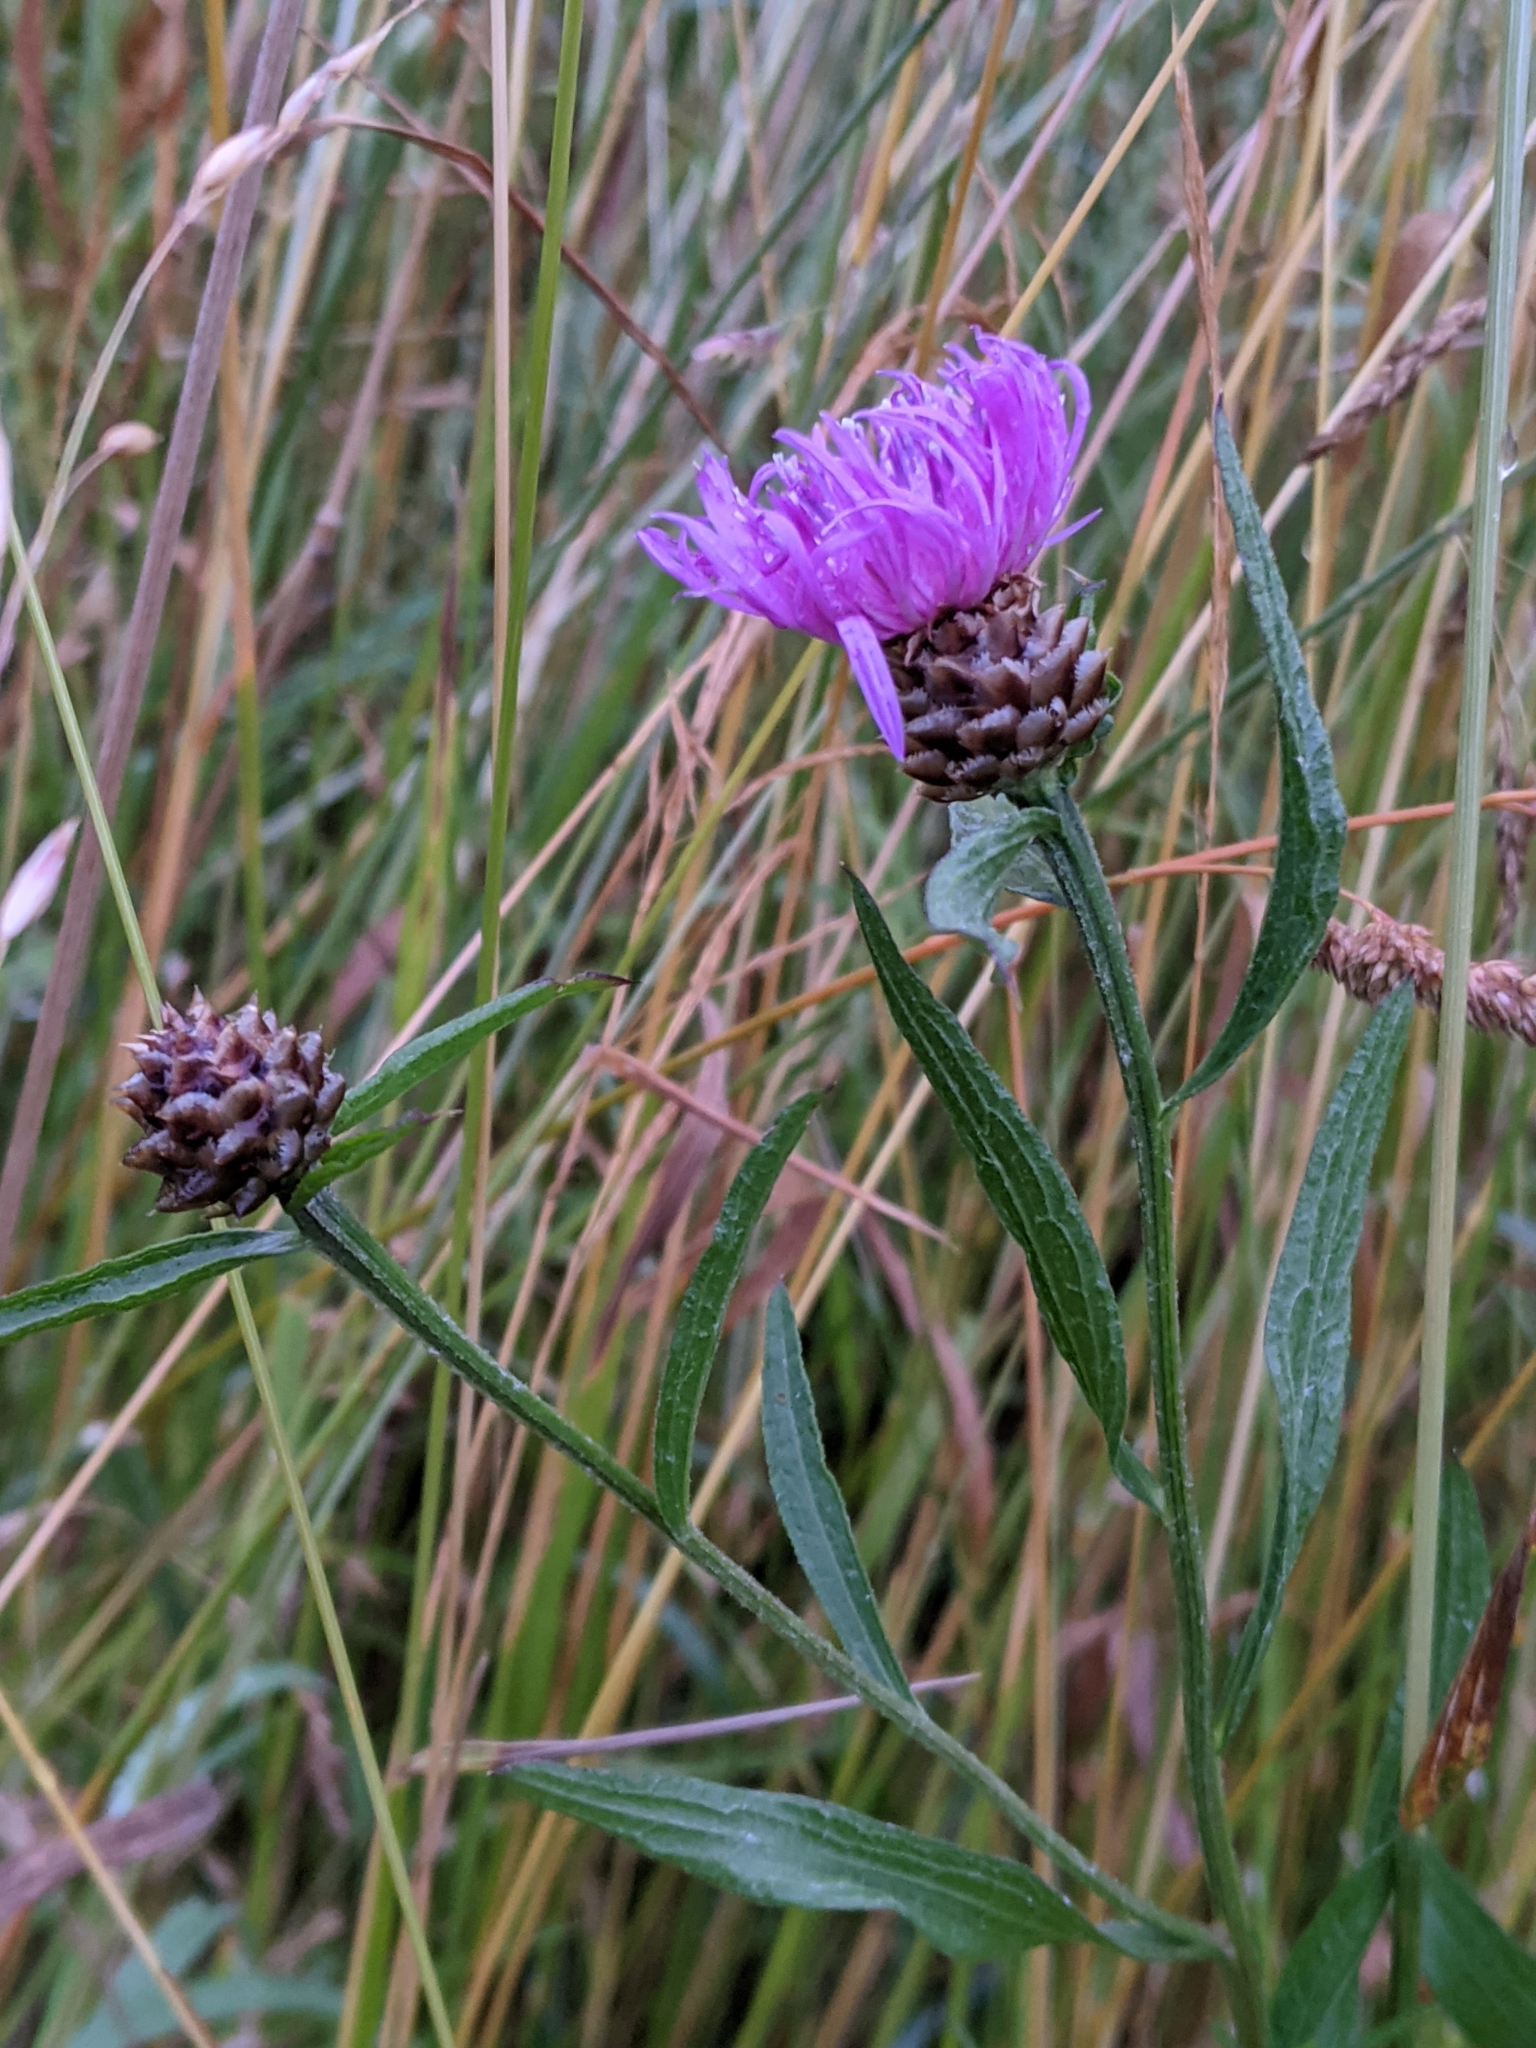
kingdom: Plantae
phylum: Tracheophyta
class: Magnoliopsida
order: Asterales
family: Asteraceae
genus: Centaurea
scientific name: Centaurea jacea
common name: Brown knapweed
